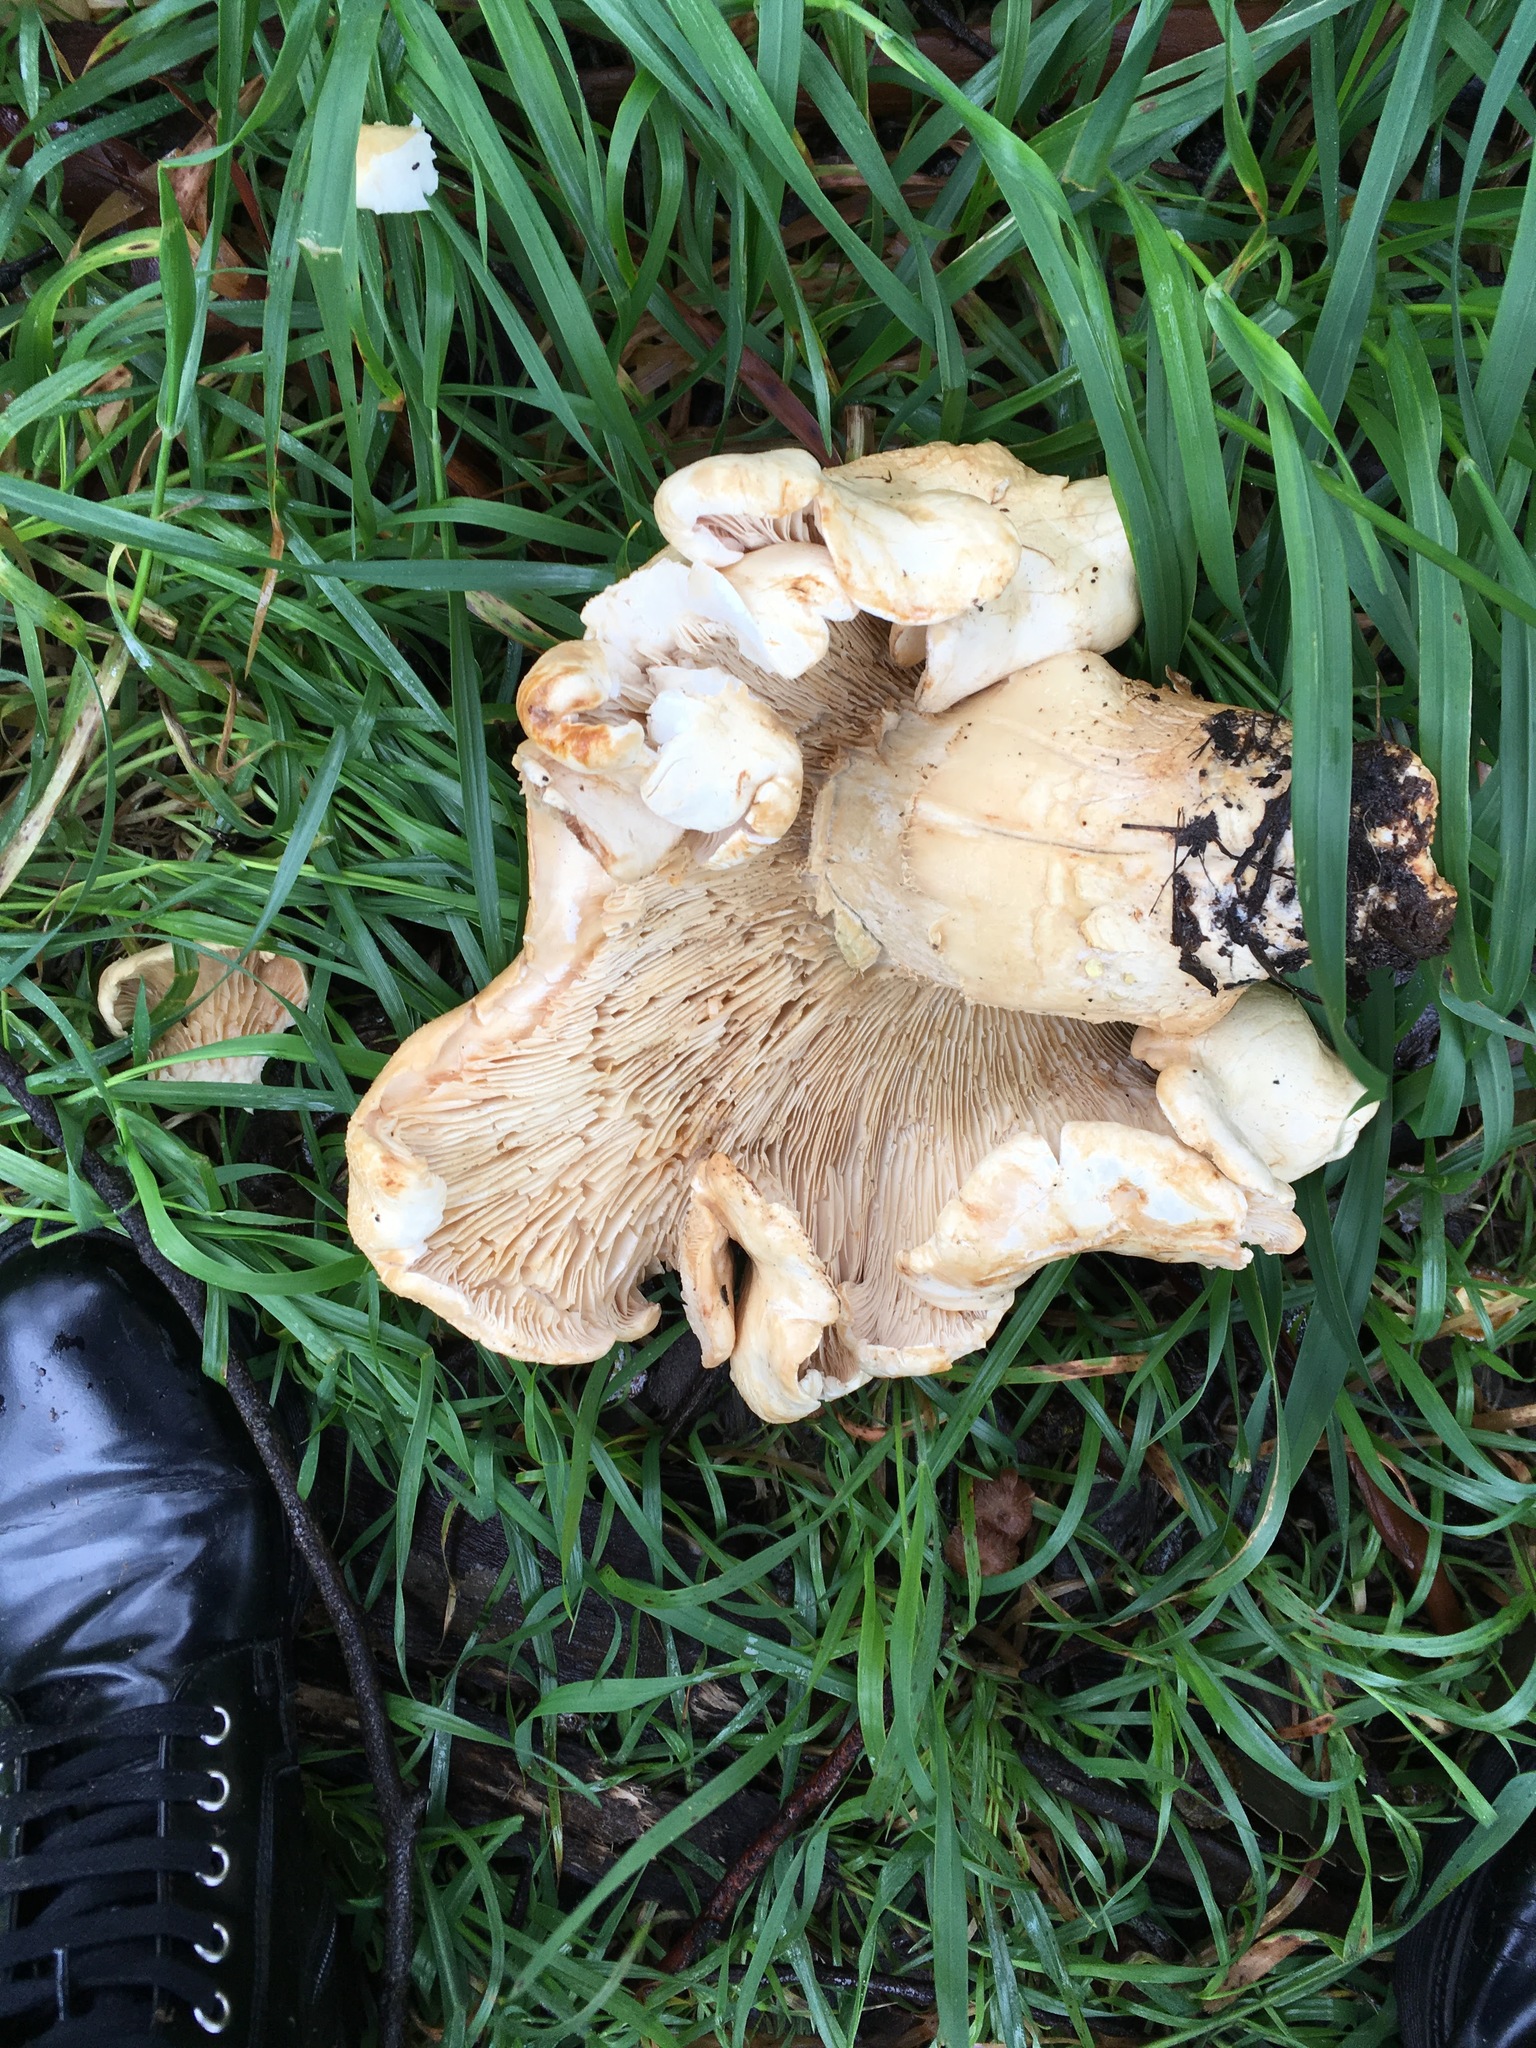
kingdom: Fungi
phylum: Basidiomycota
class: Agaricomycetes
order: Agaricales
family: Tricholomataceae
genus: Leucopaxillus
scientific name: Leucopaxillus albissimus
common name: Large white leucopax
